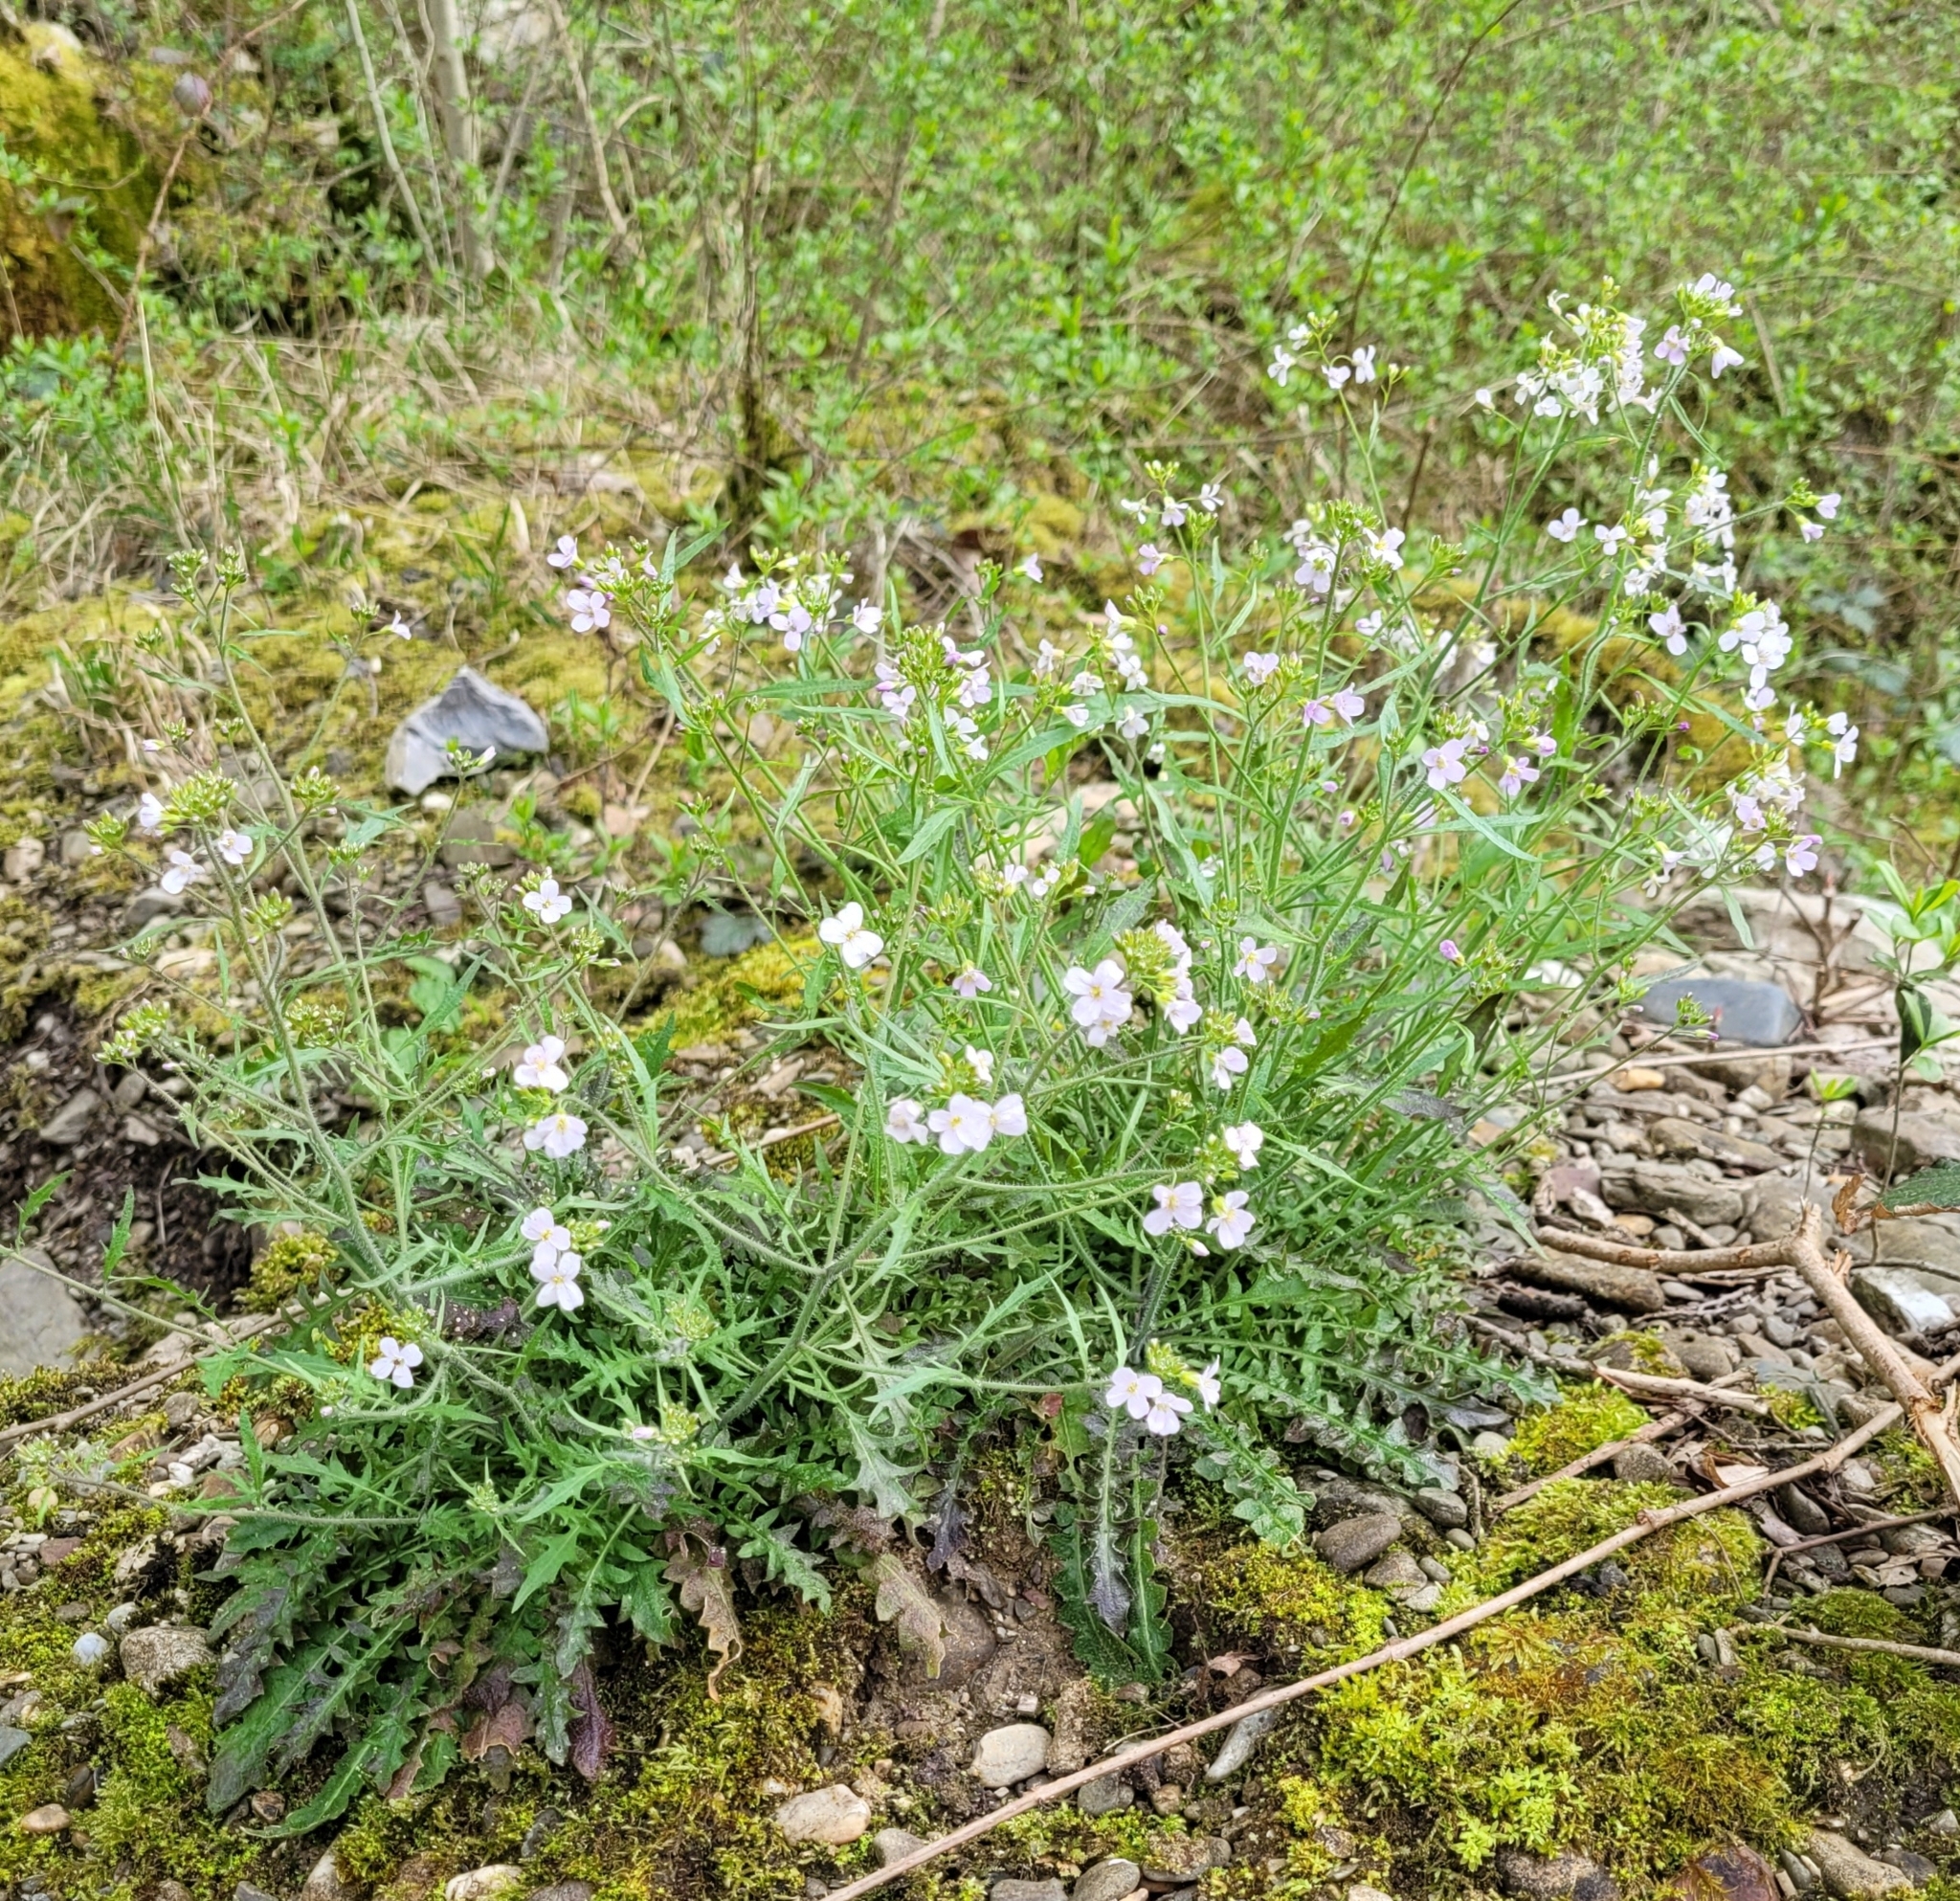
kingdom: Plantae
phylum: Tracheophyta
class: Magnoliopsida
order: Brassicales
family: Brassicaceae
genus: Arabidopsis
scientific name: Arabidopsis arenosa
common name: Sand rock-cress
